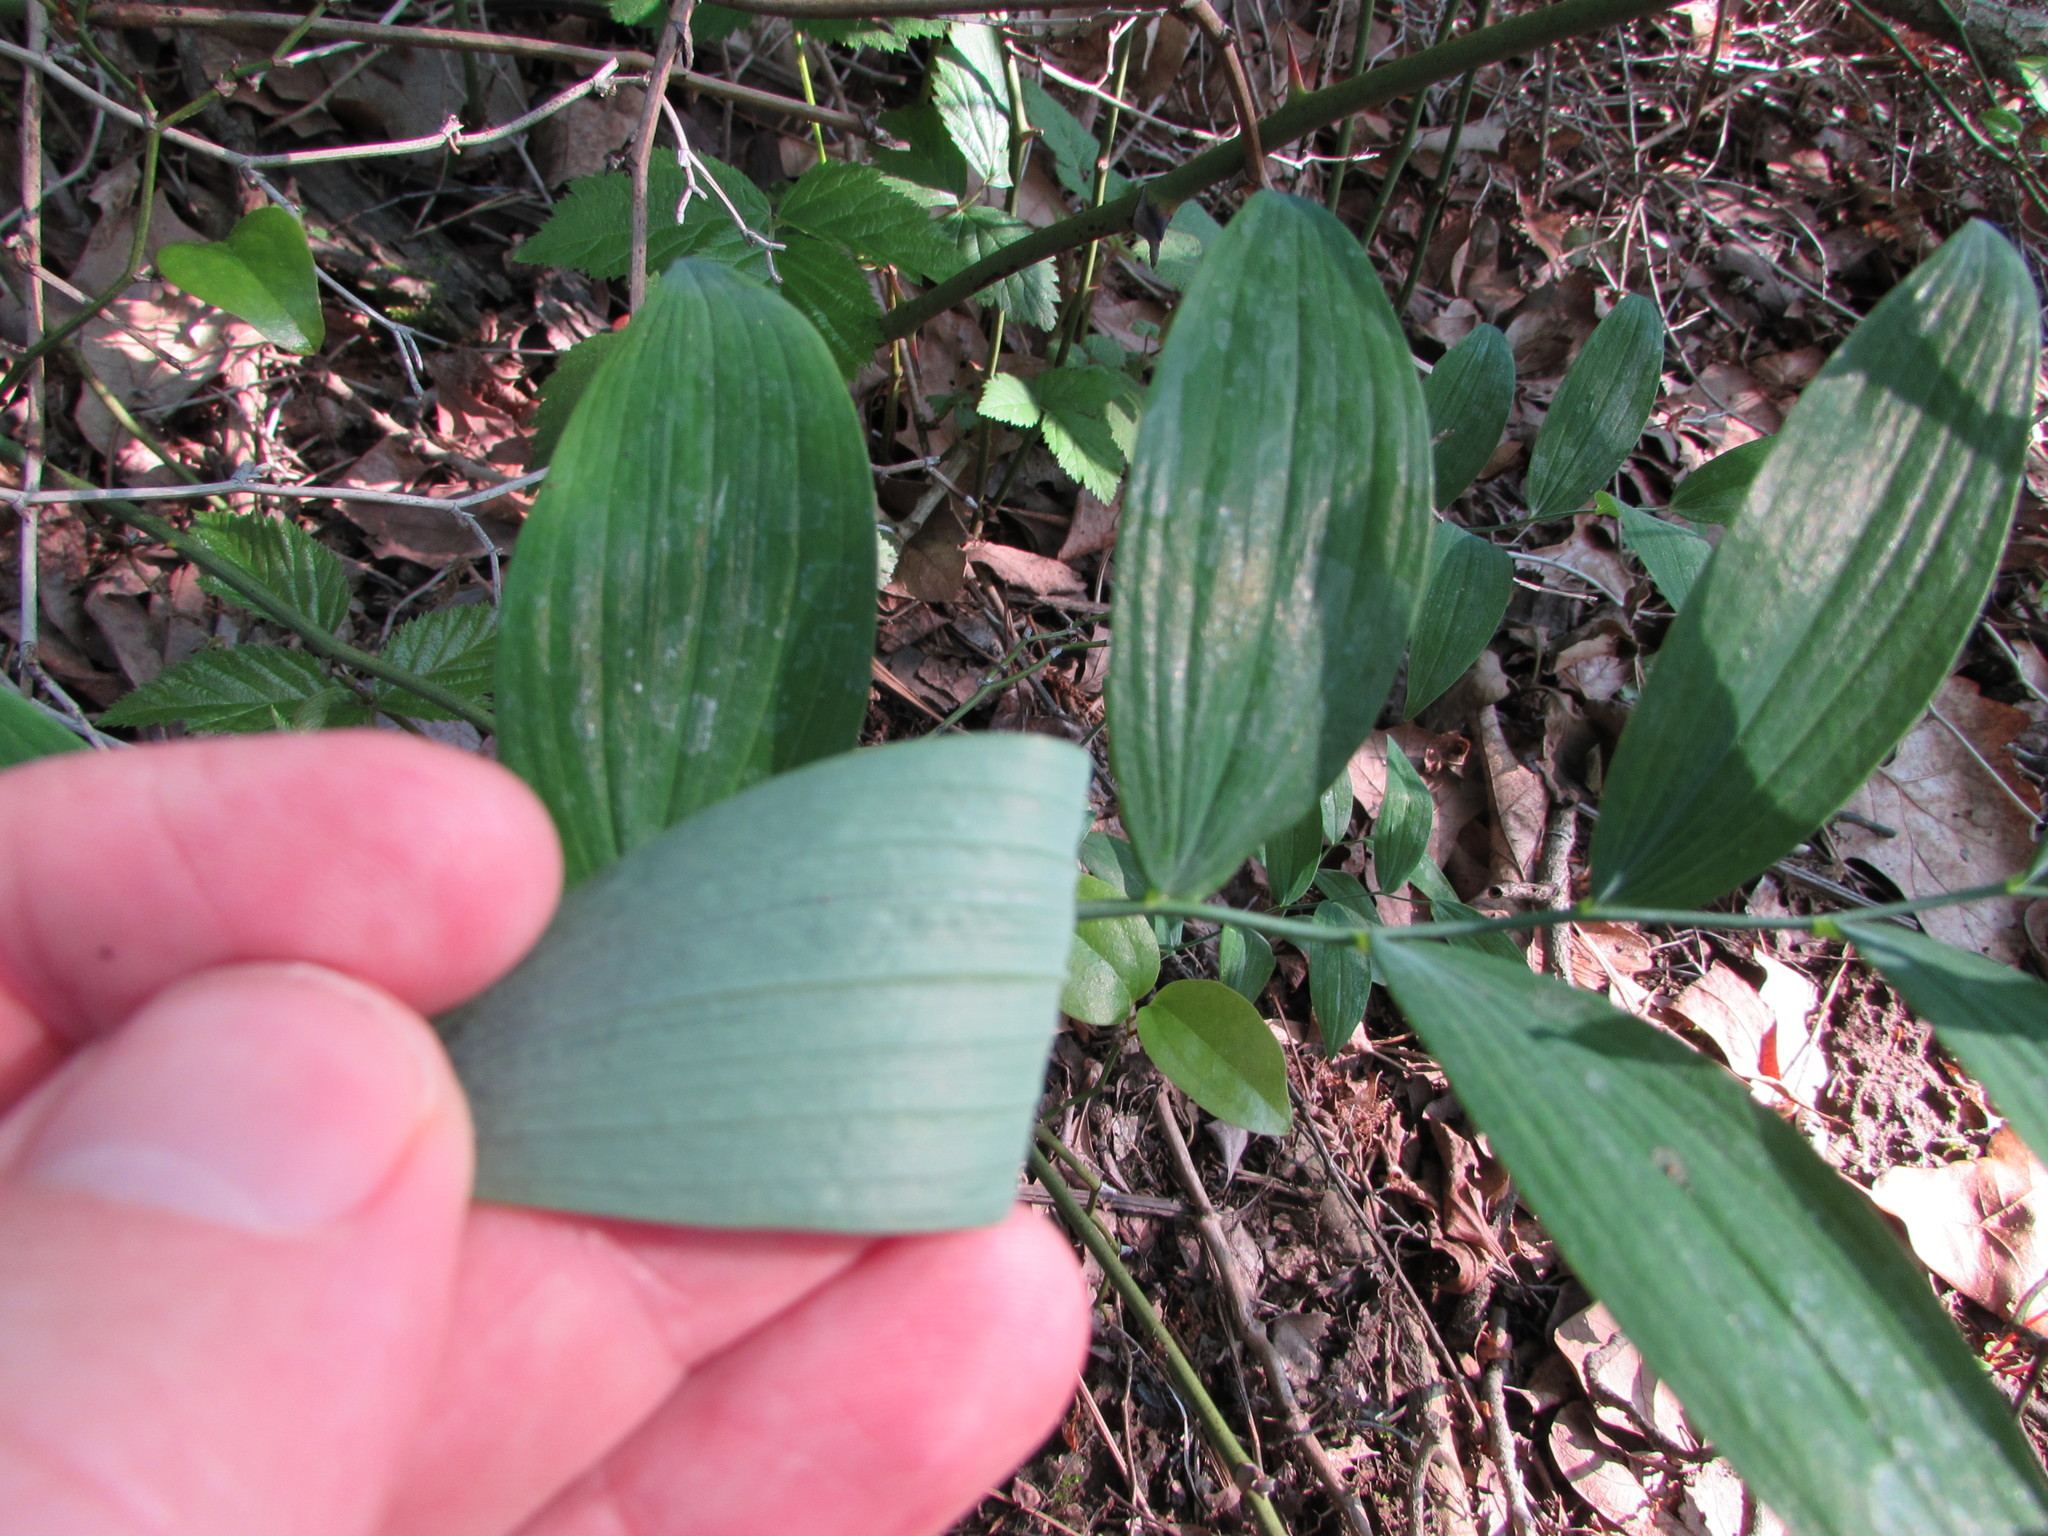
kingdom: Plantae
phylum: Tracheophyta
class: Liliopsida
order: Asparagales
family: Asparagaceae
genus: Polygonatum
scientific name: Polygonatum biflorum
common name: American solomon's-seal
